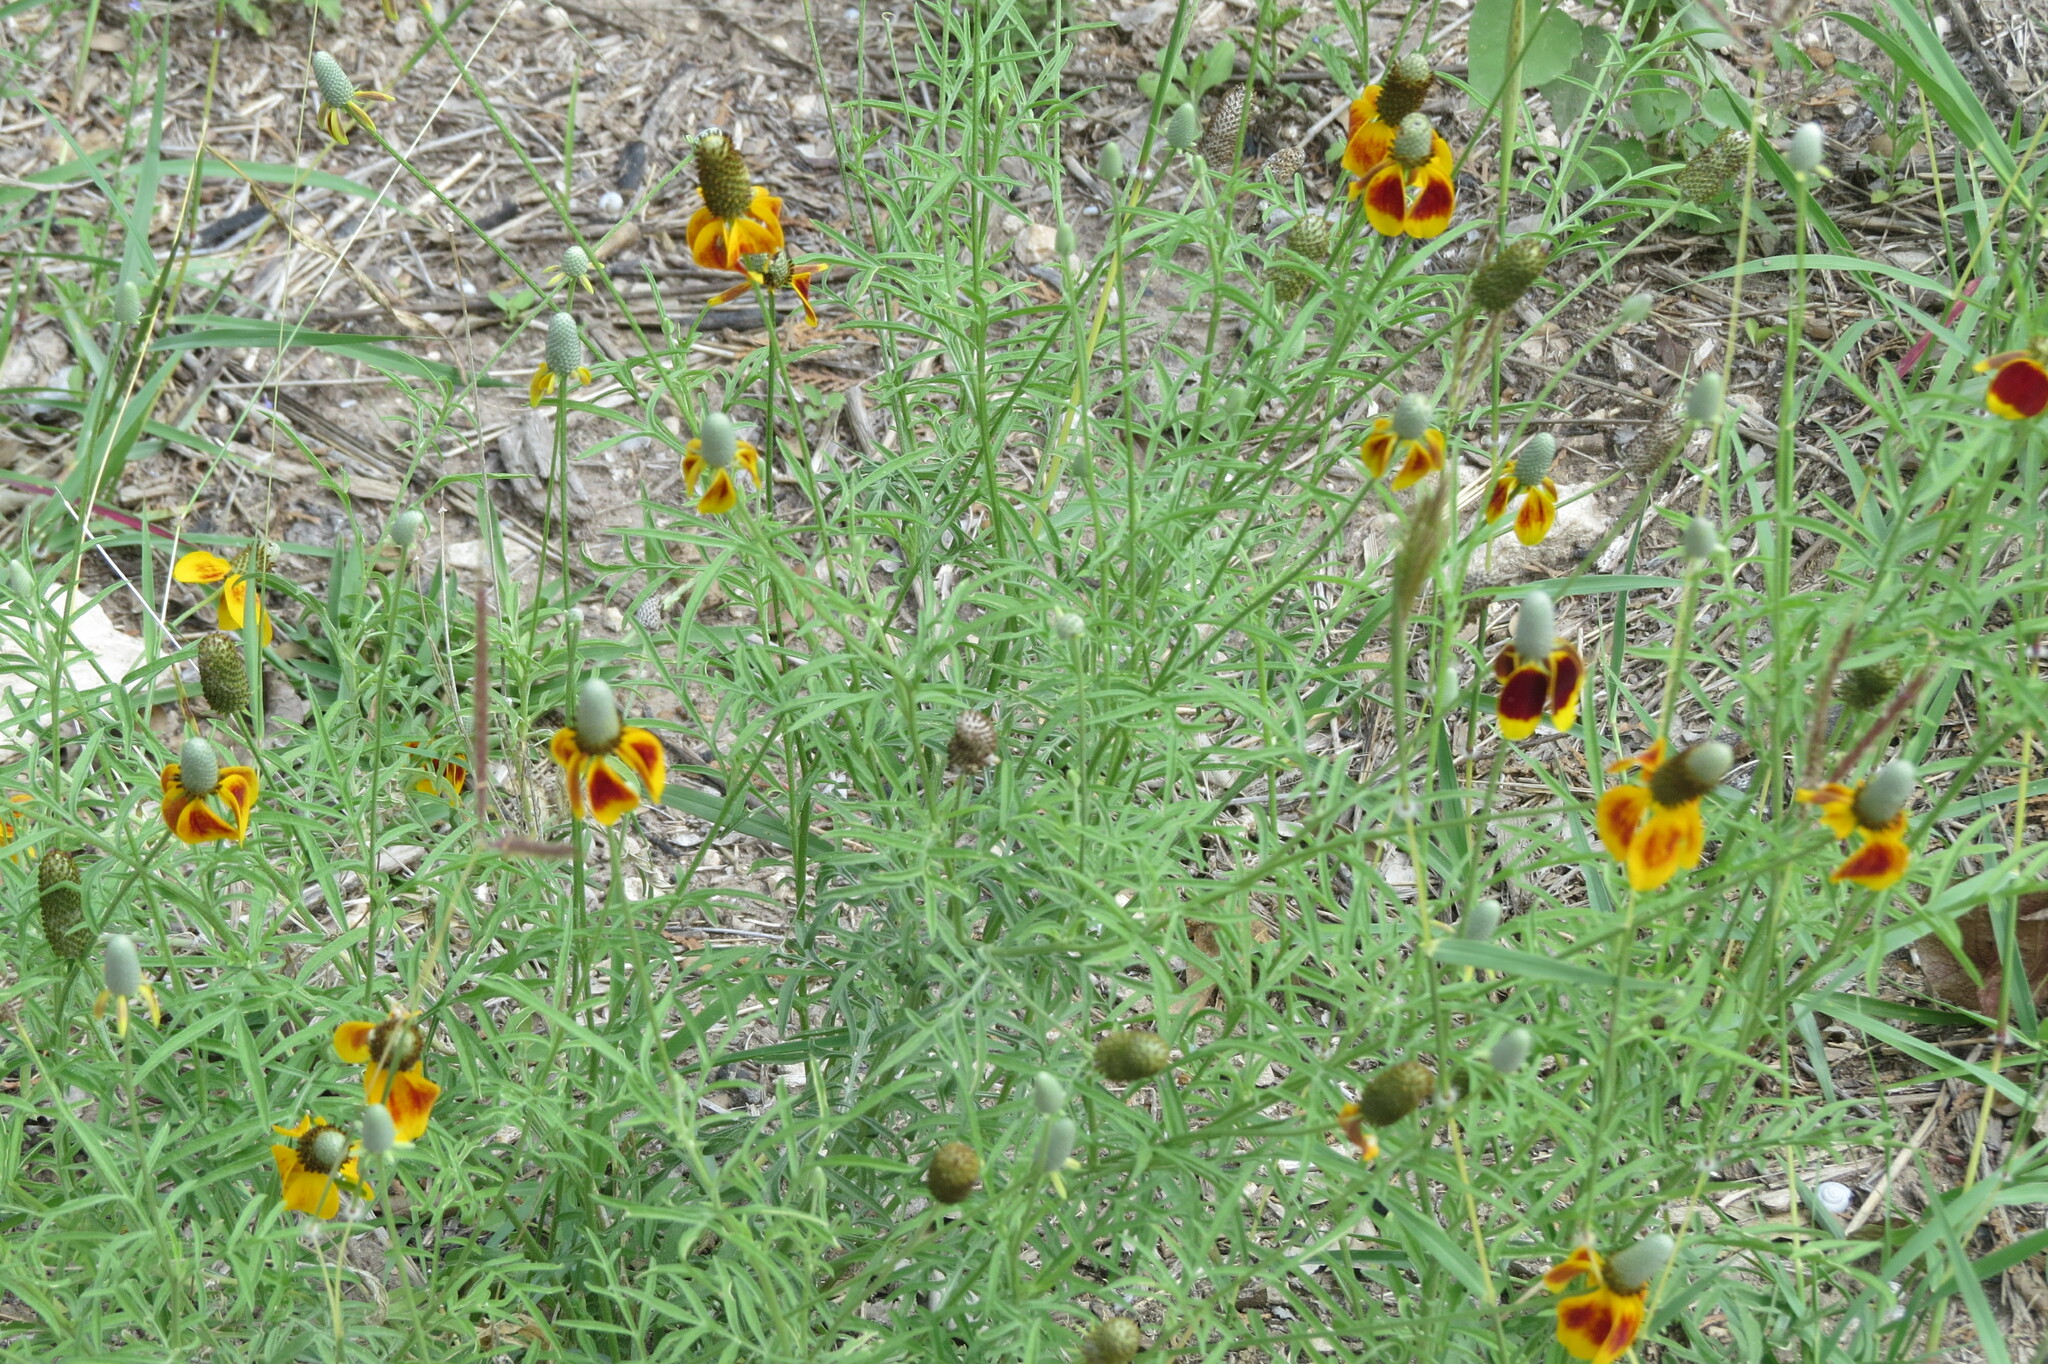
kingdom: Plantae
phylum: Tracheophyta
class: Magnoliopsida
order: Asterales
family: Asteraceae
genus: Ratibida
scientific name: Ratibida columnifera
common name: Prairie coneflower
